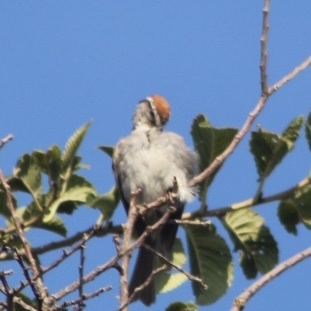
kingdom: Animalia
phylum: Chordata
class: Aves
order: Passeriformes
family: Passerellidae
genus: Spizella
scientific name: Spizella passerina
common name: Chipping sparrow
